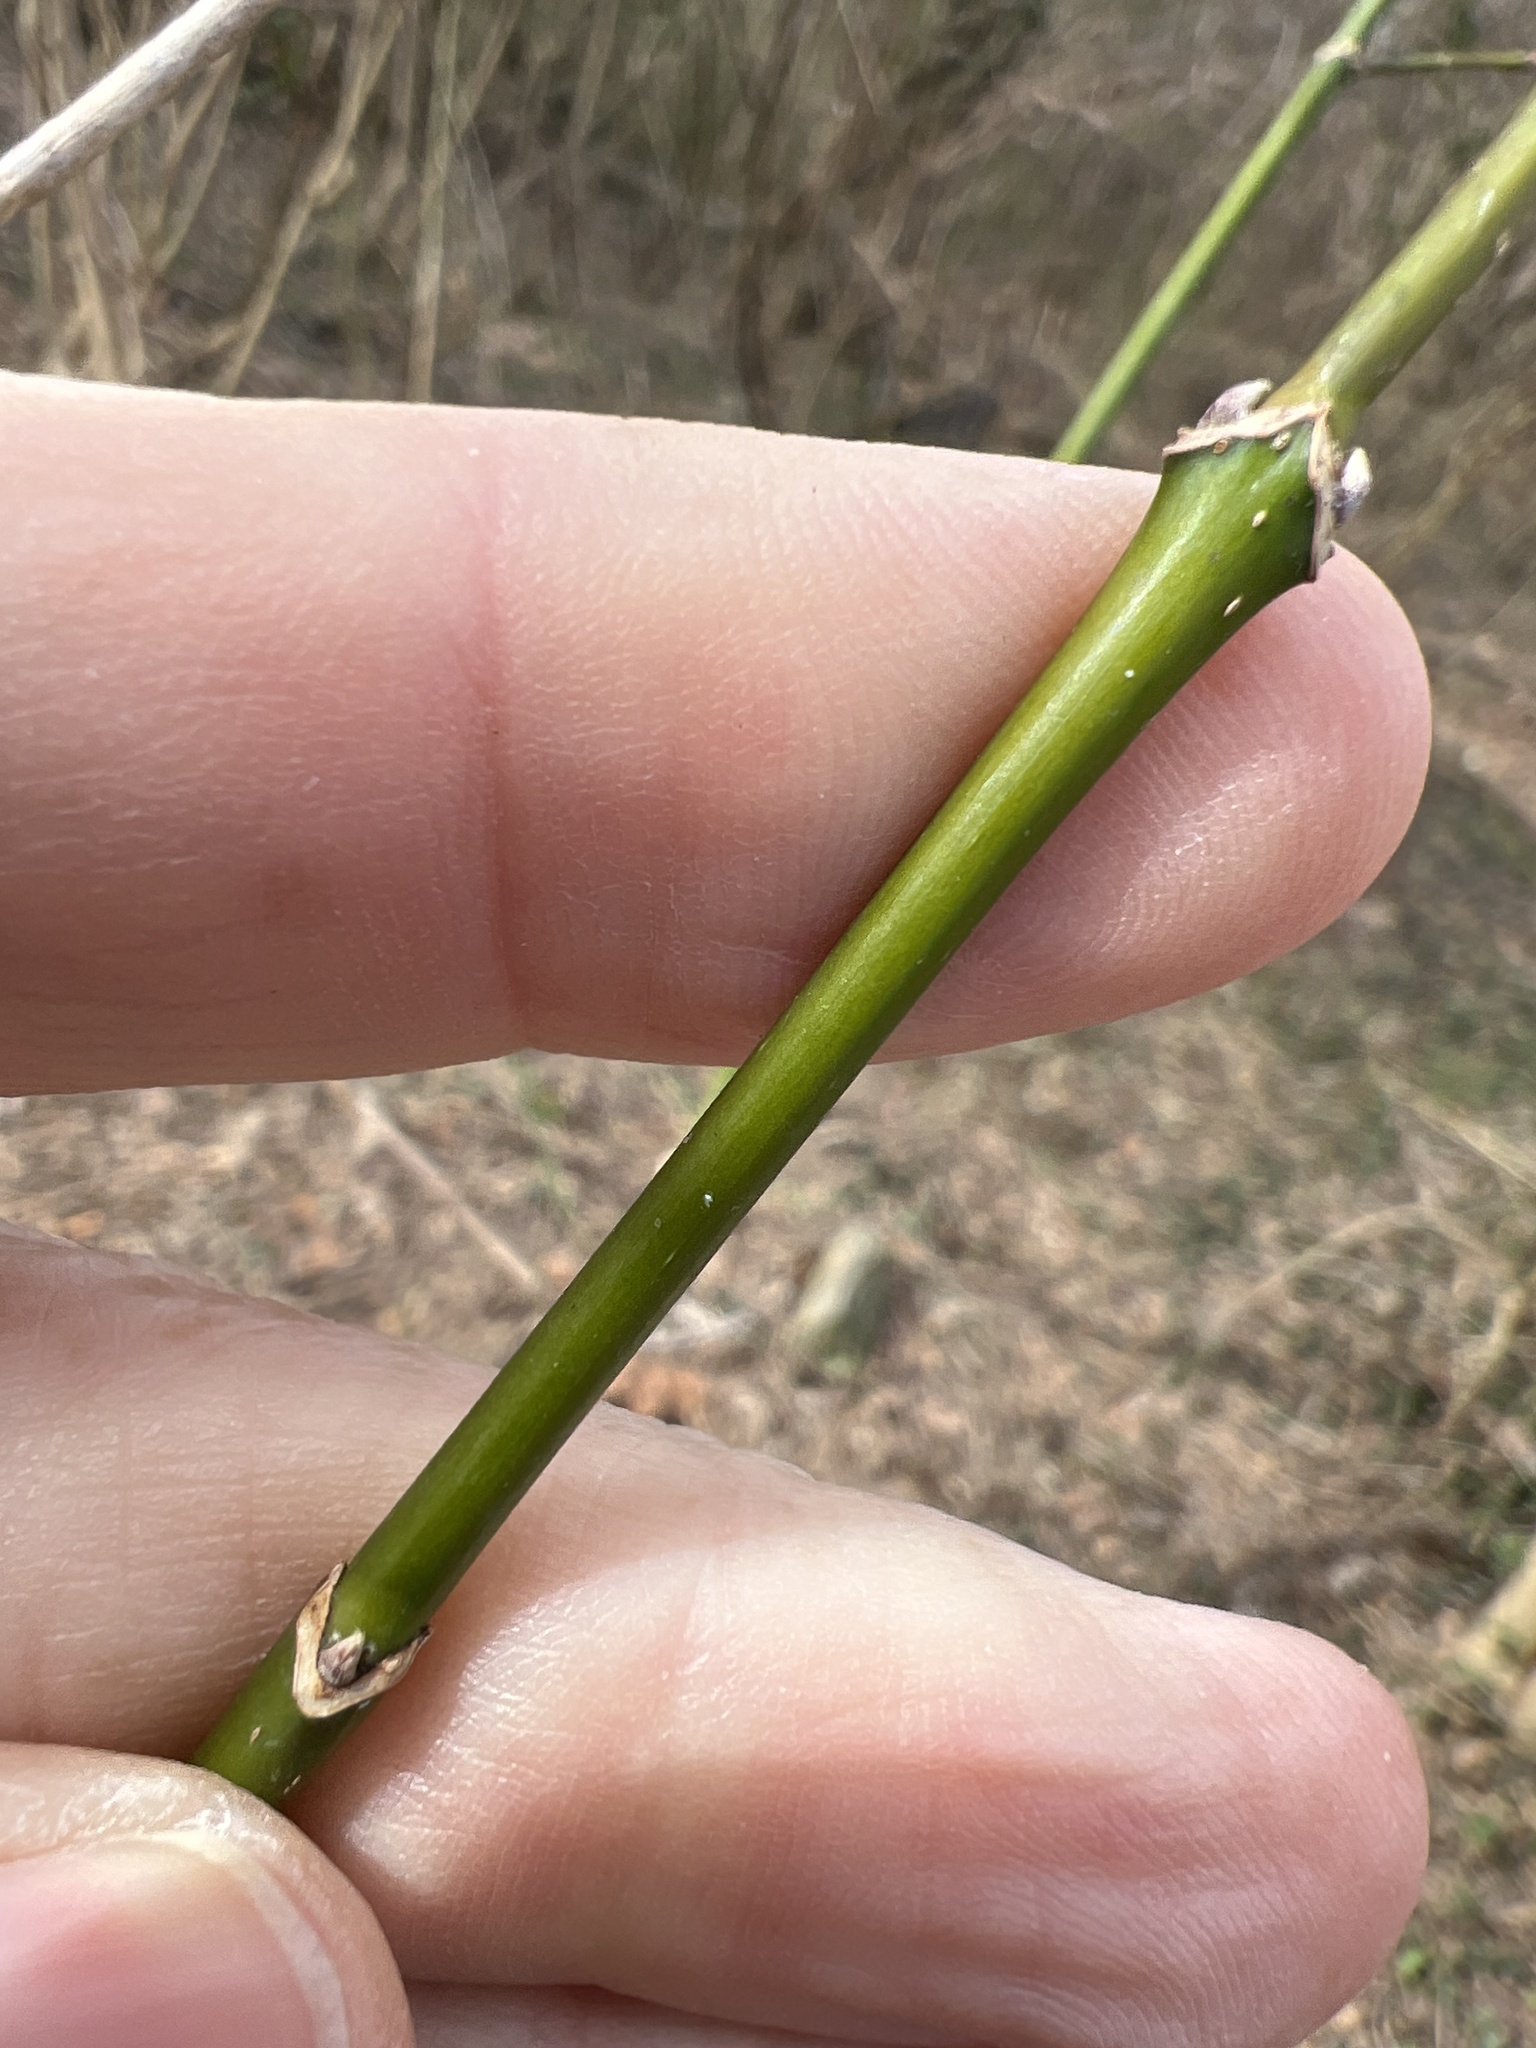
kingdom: Plantae
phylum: Tracheophyta
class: Magnoliopsida
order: Sapindales
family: Sapindaceae
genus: Acer
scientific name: Acer negundo
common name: Ashleaf maple
